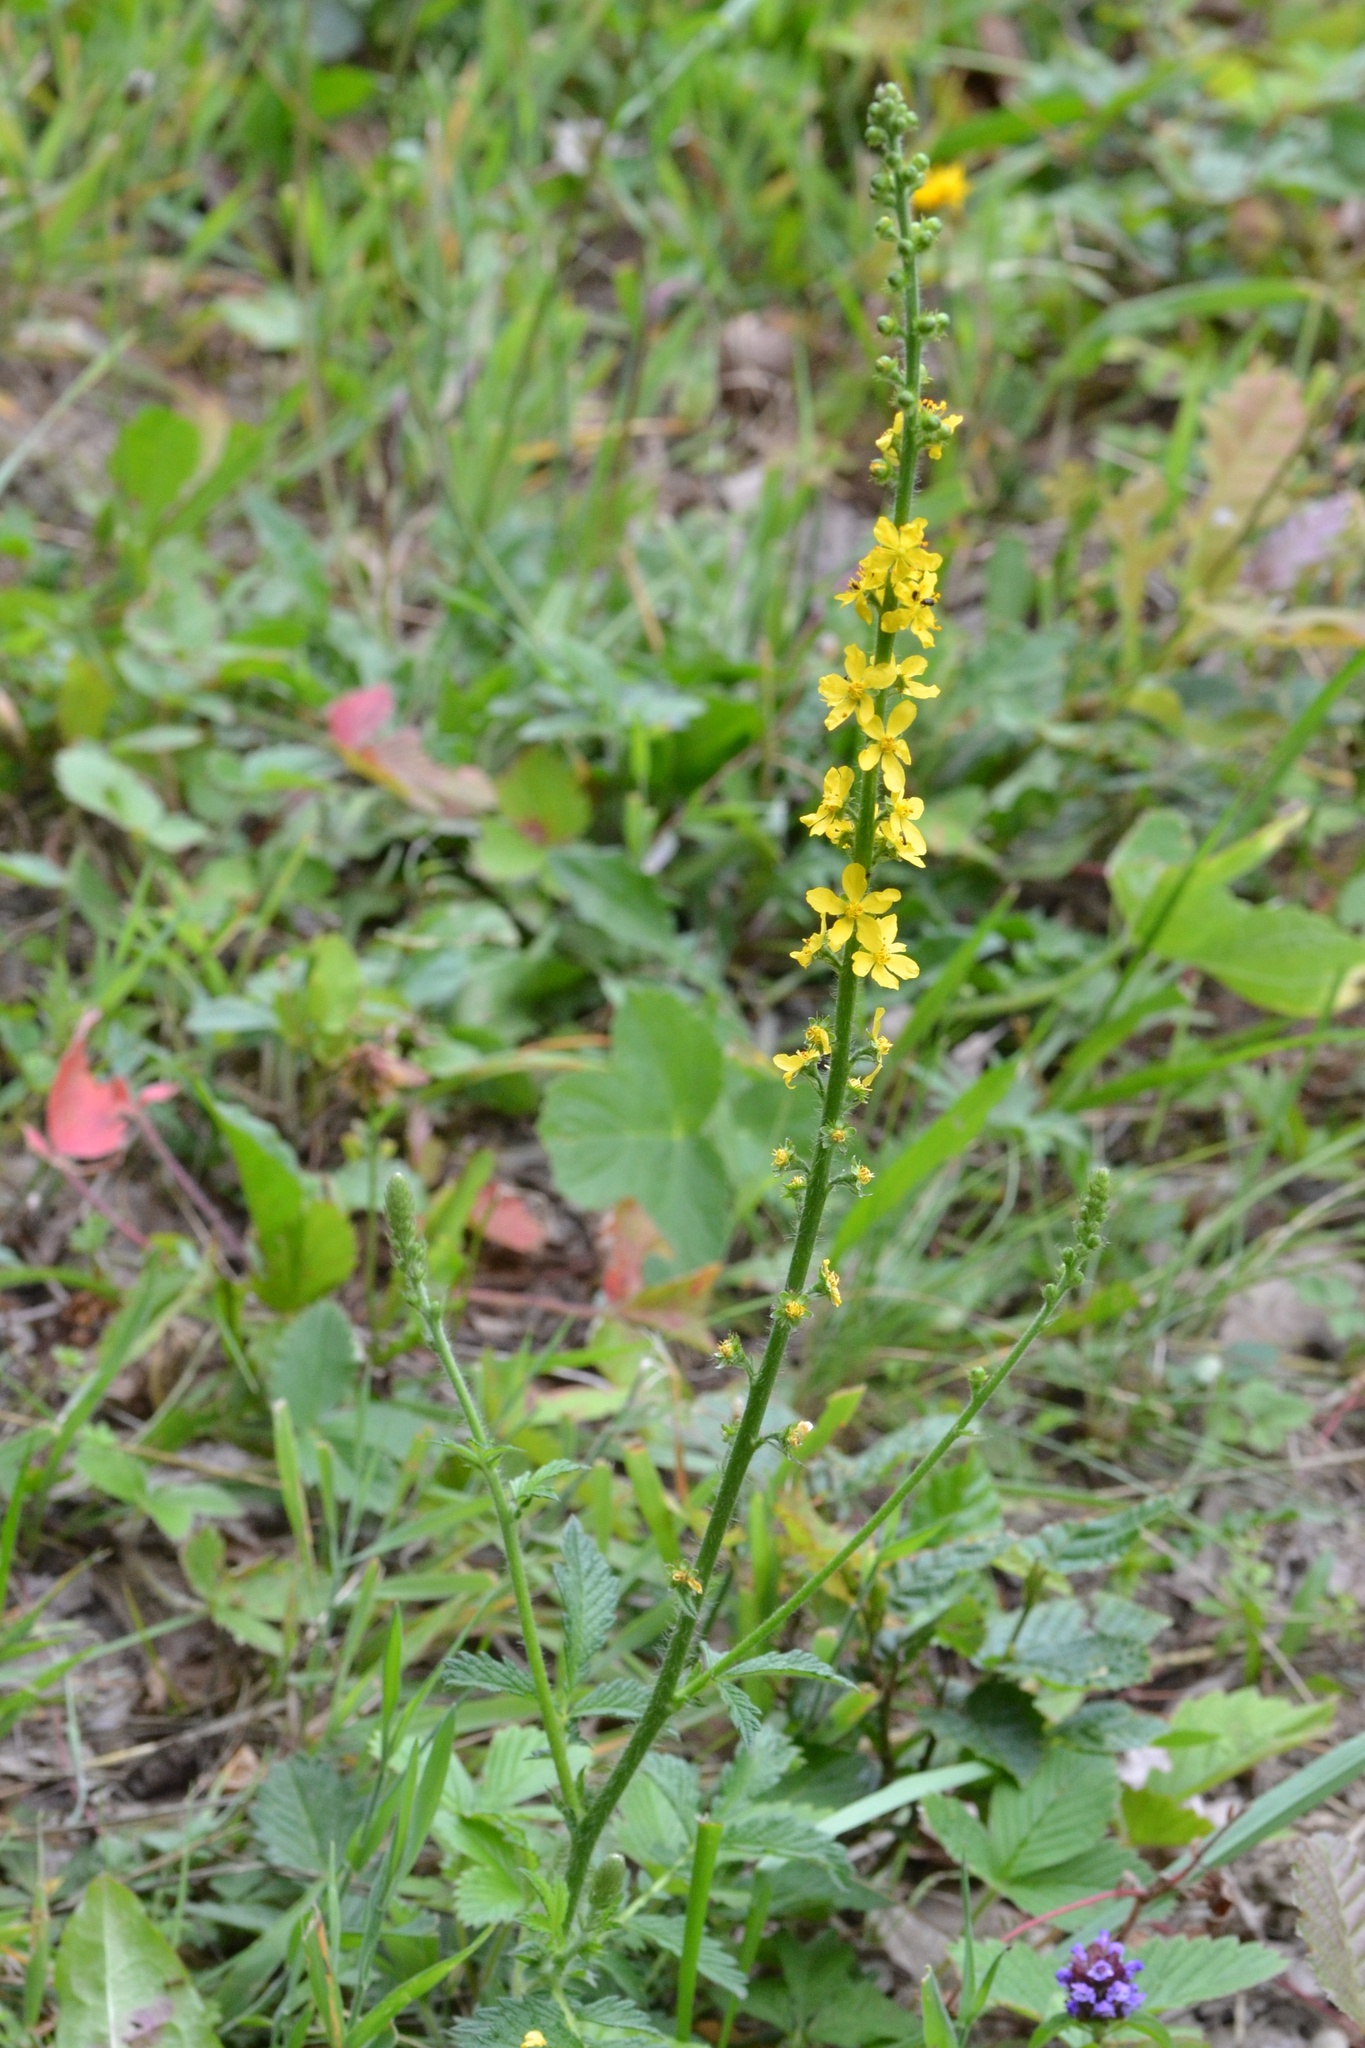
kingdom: Plantae
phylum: Tracheophyta
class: Magnoliopsida
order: Rosales
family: Rosaceae
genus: Agrimonia
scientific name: Agrimonia eupatoria
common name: Agrimony
